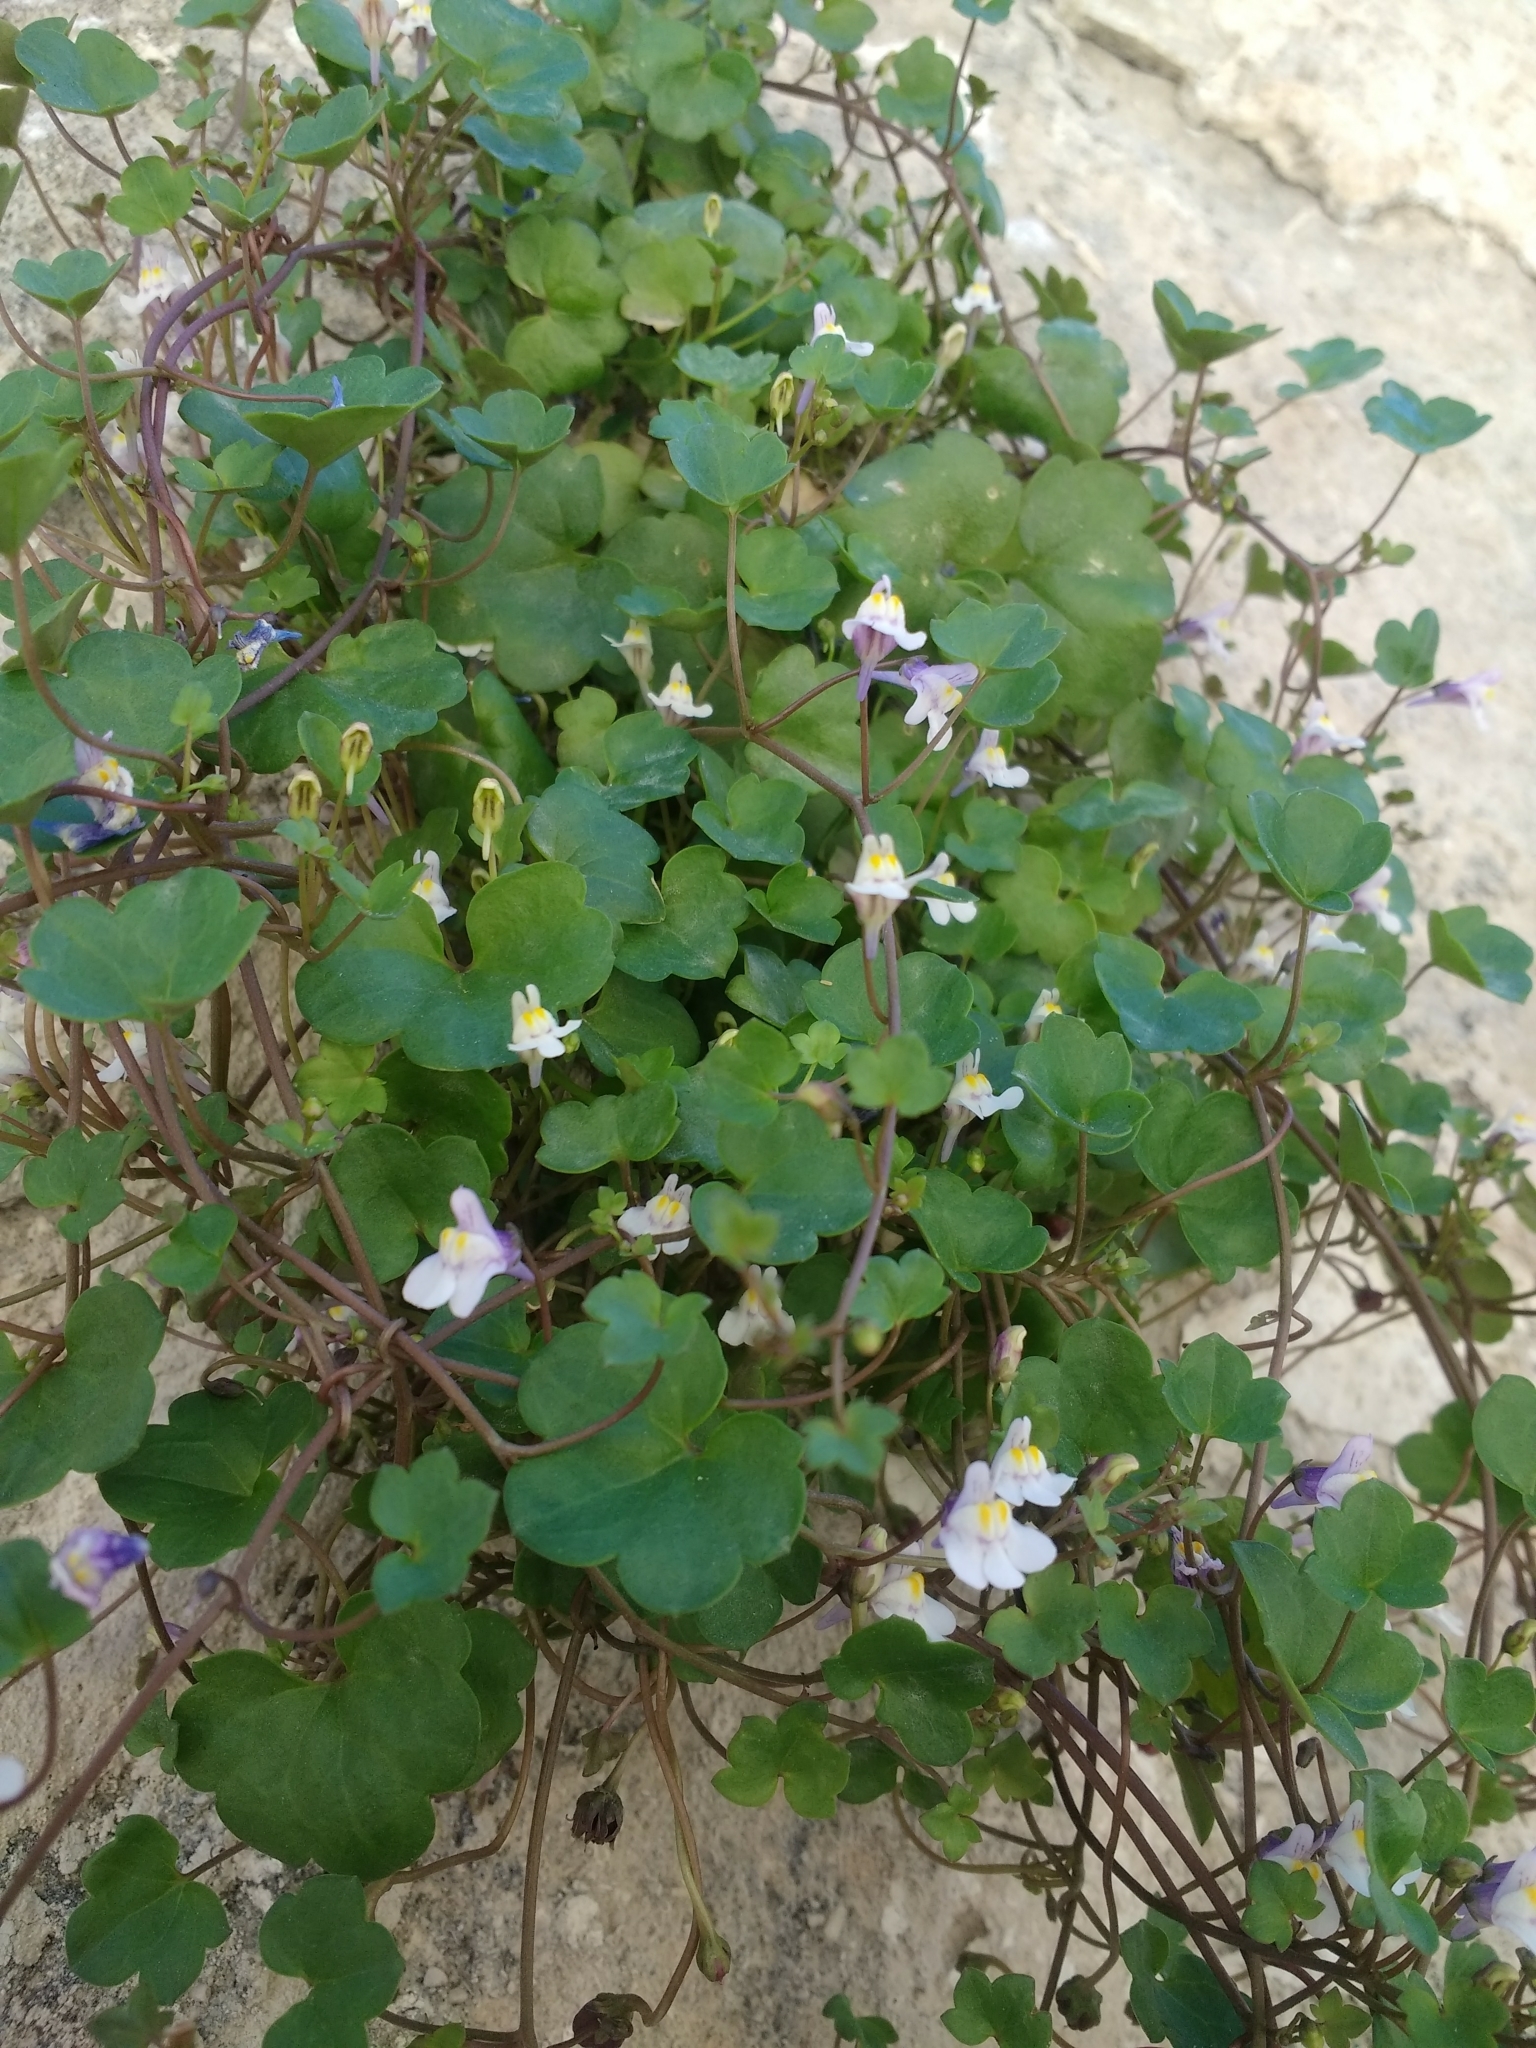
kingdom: Plantae
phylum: Tracheophyta
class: Magnoliopsida
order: Lamiales
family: Plantaginaceae
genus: Cymbalaria
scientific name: Cymbalaria muralis
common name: Ivy-leaved toadflax
